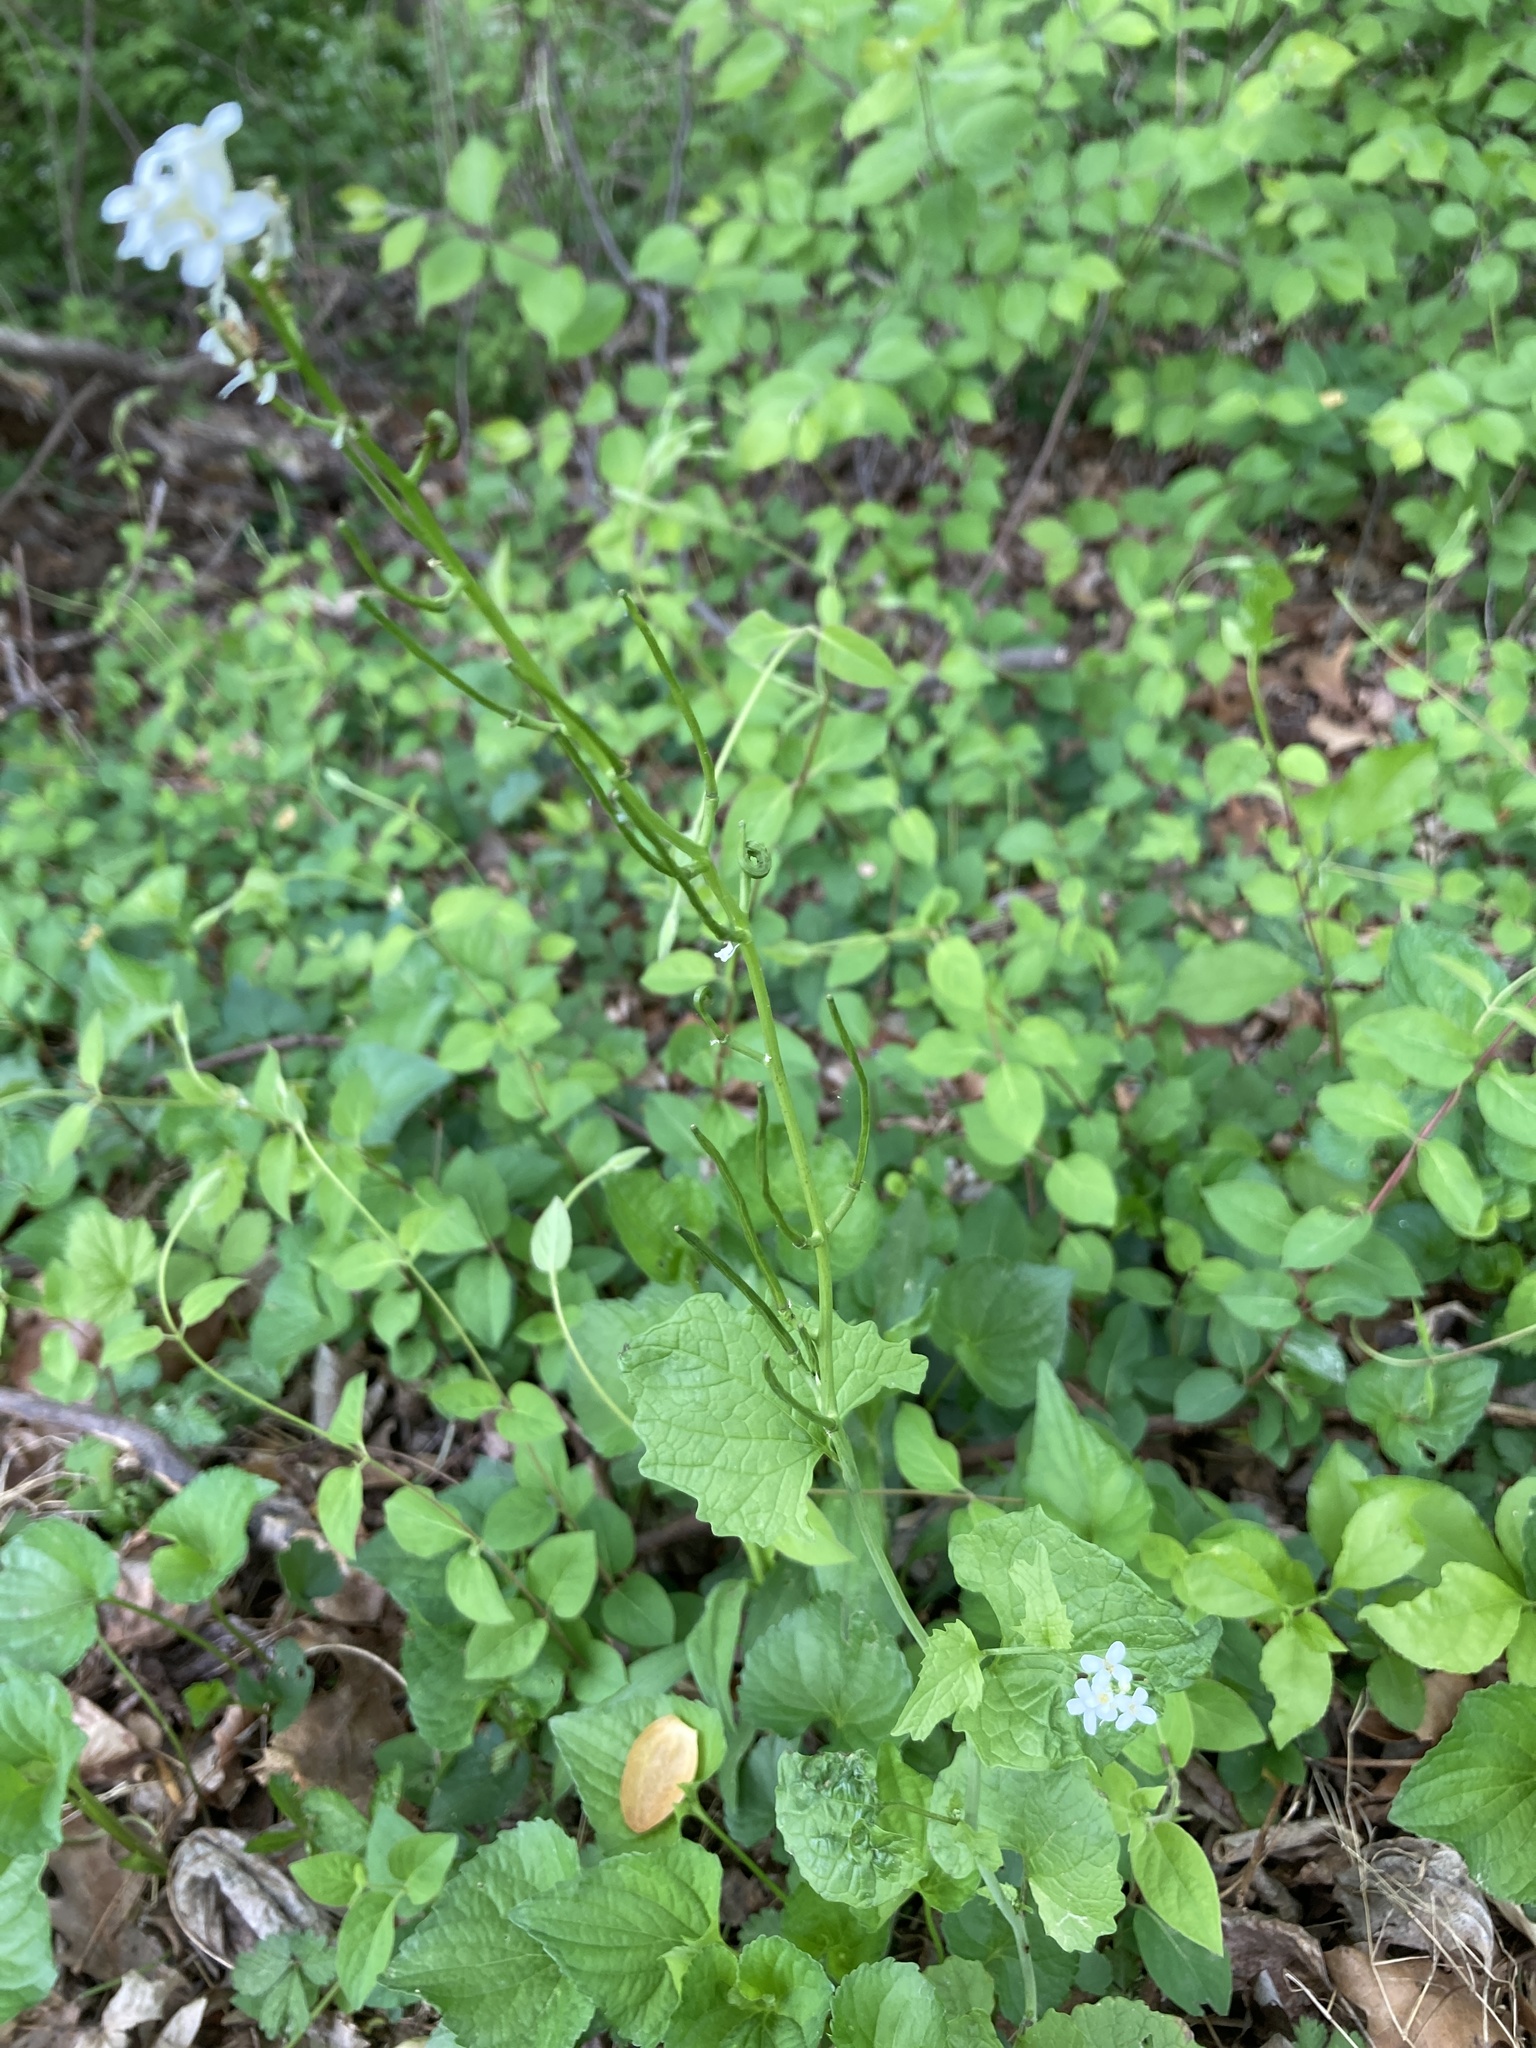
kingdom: Plantae
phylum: Tracheophyta
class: Magnoliopsida
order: Brassicales
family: Brassicaceae
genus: Alliaria
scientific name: Alliaria petiolata
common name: Garlic mustard
